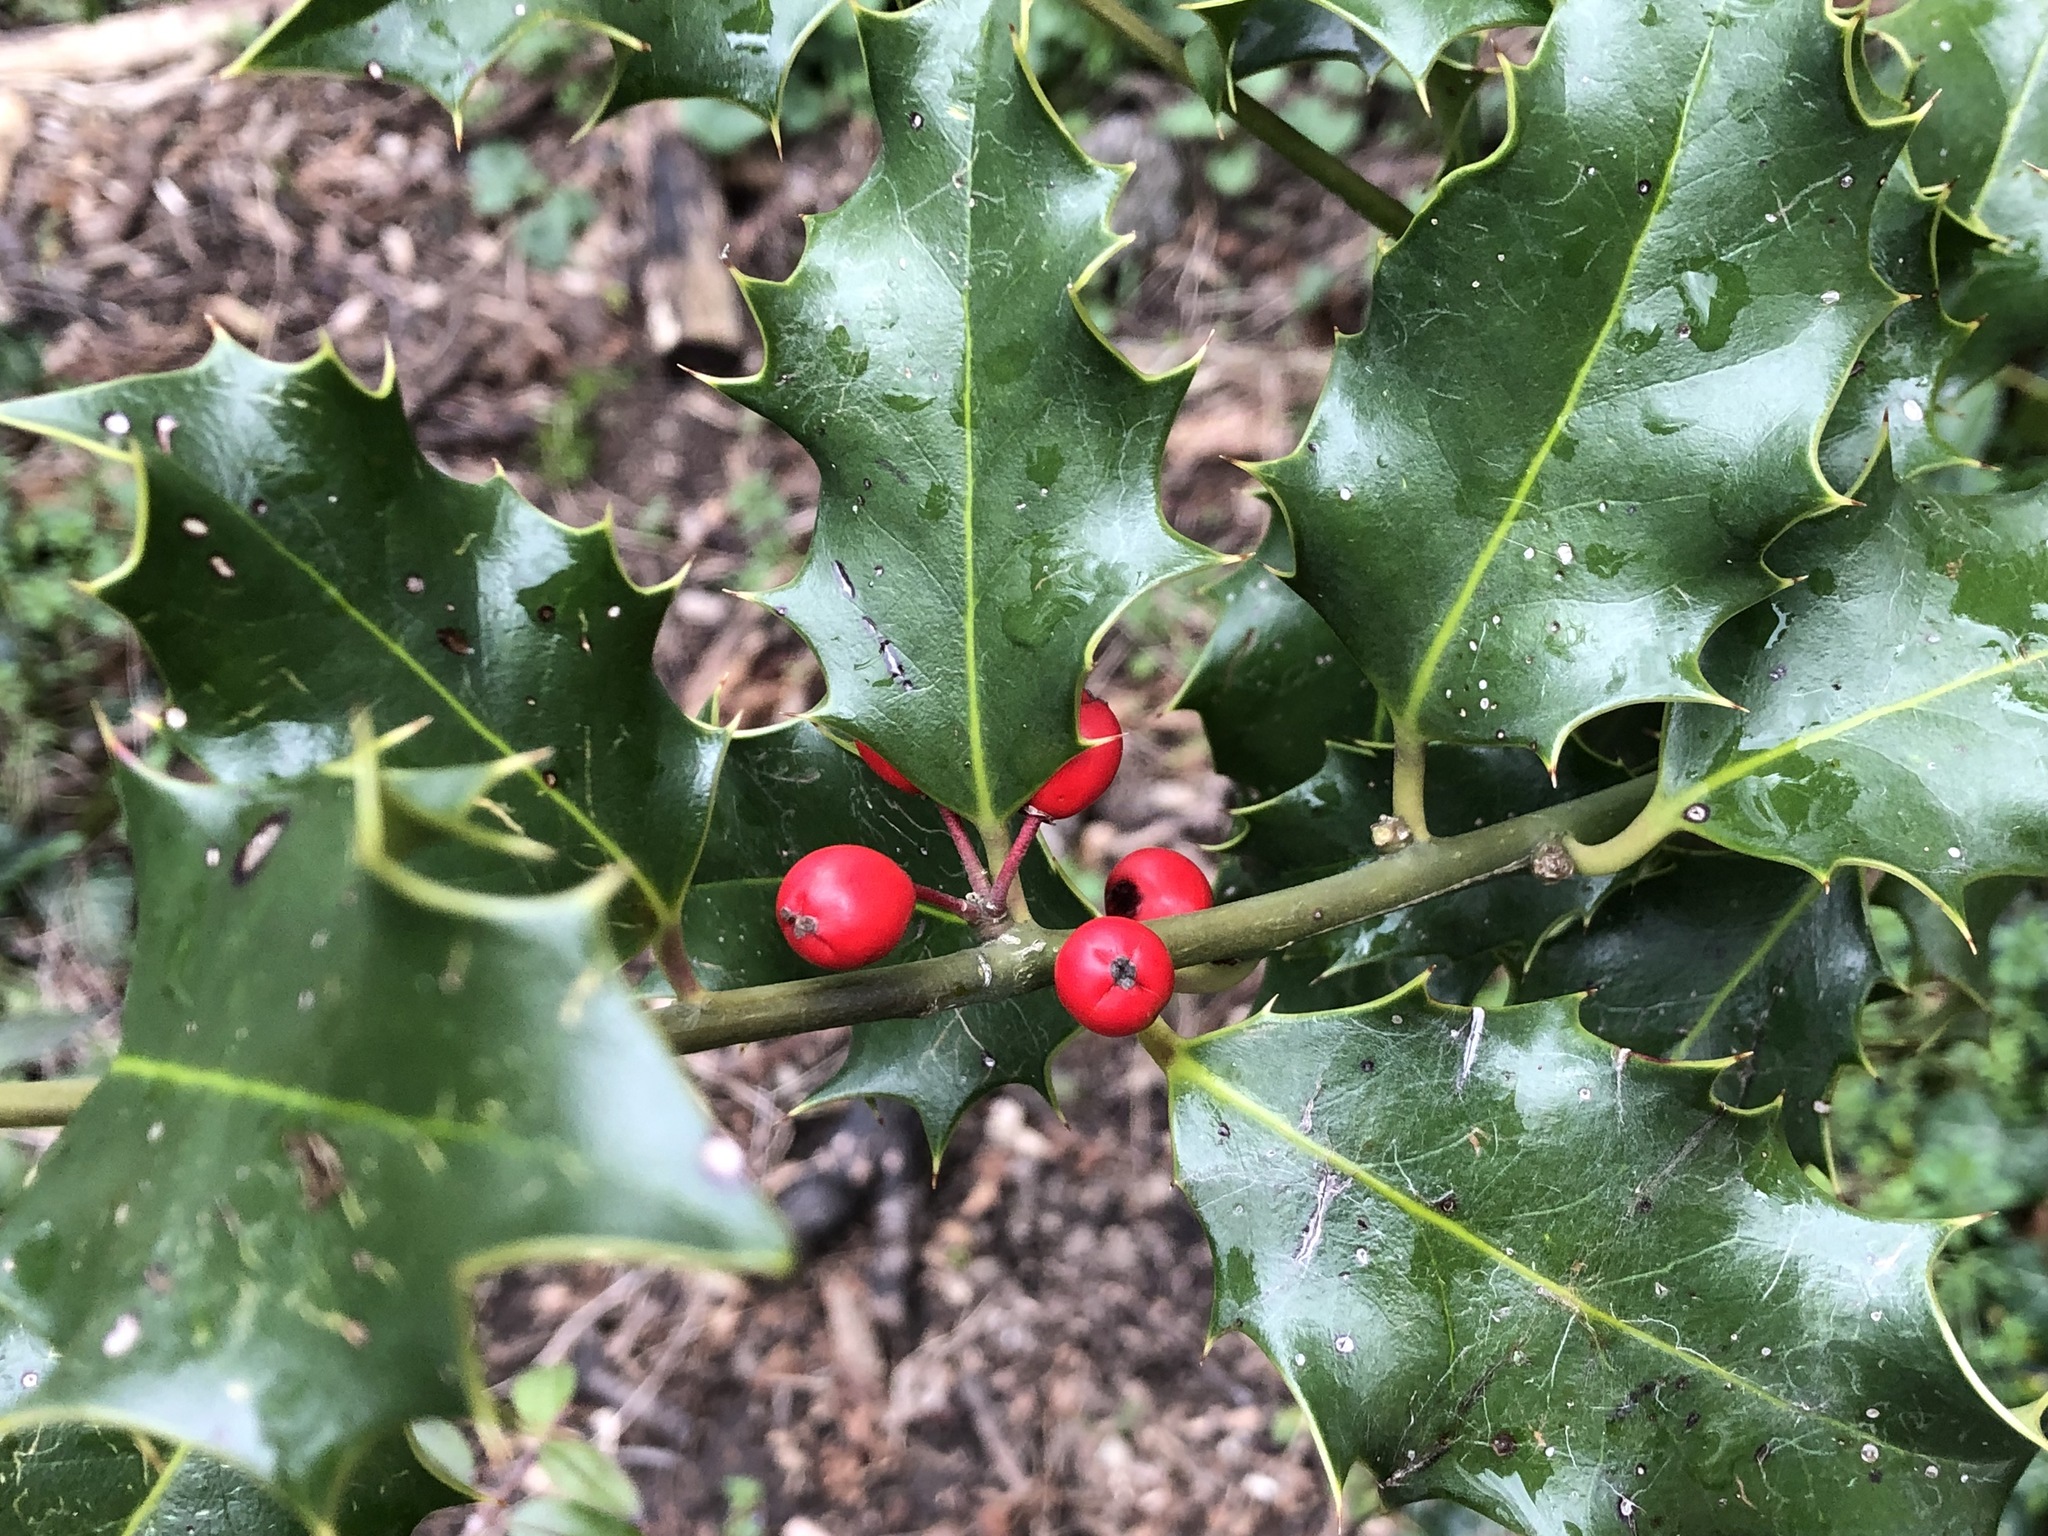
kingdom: Plantae
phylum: Tracheophyta
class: Magnoliopsida
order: Aquifoliales
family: Aquifoliaceae
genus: Ilex
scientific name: Ilex aquifolium
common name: English holly
